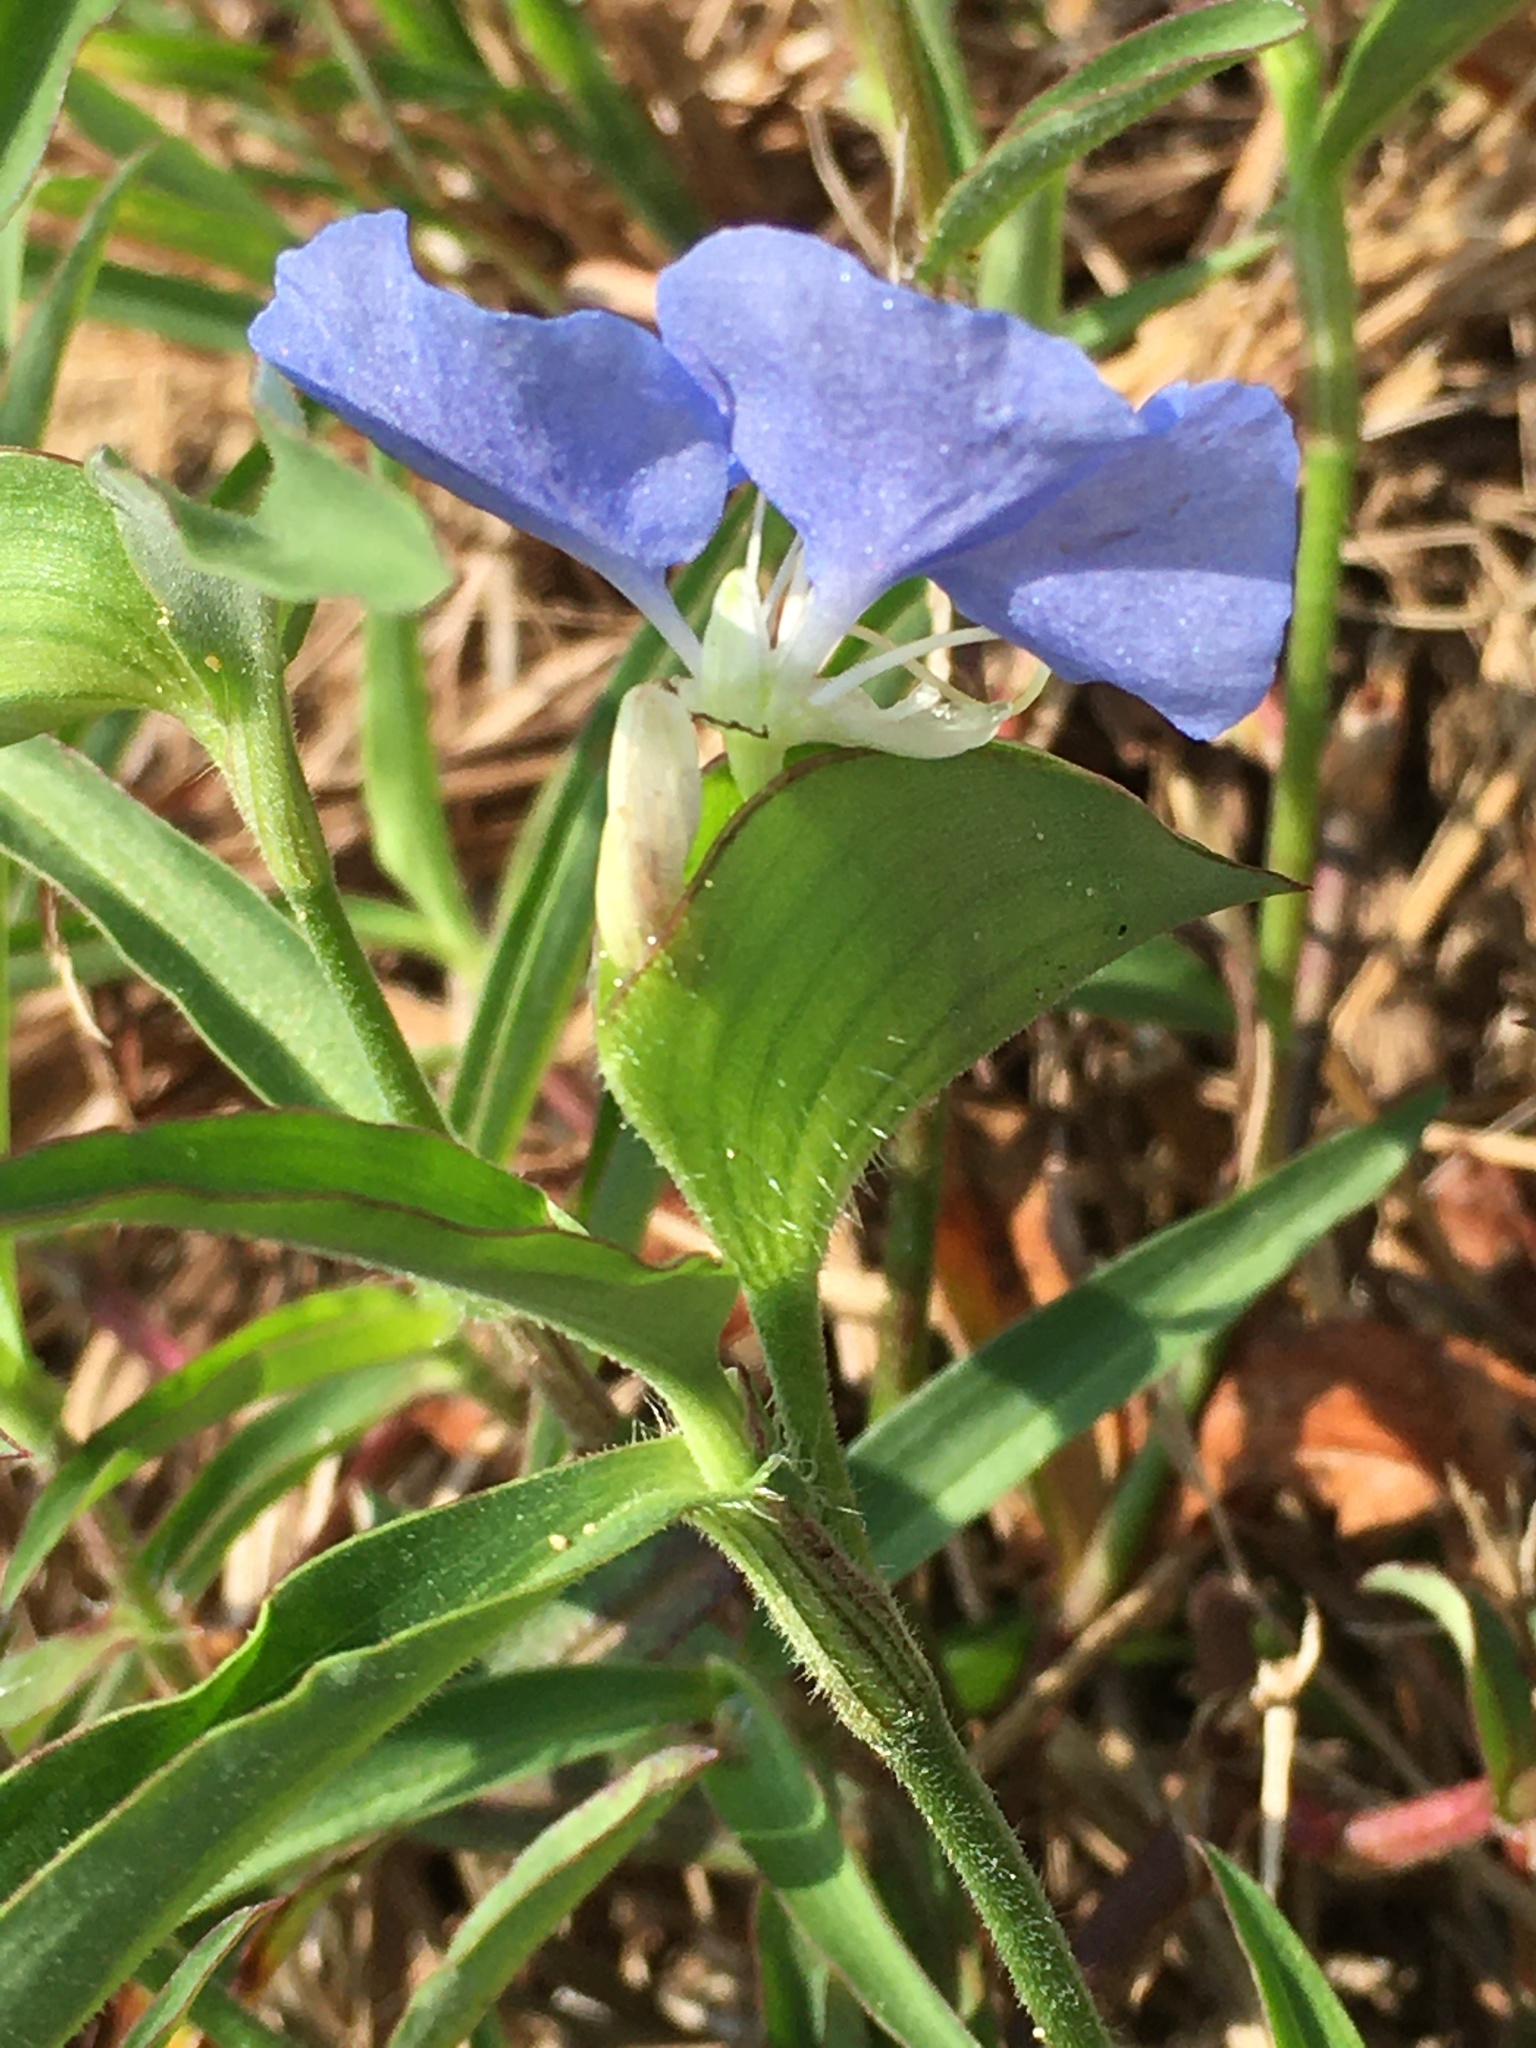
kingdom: Plantae
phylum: Tracheophyta
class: Liliopsida
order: Commelinales
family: Commelinaceae
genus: Commelina
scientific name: Commelina erecta
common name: Blousel blommetjie
